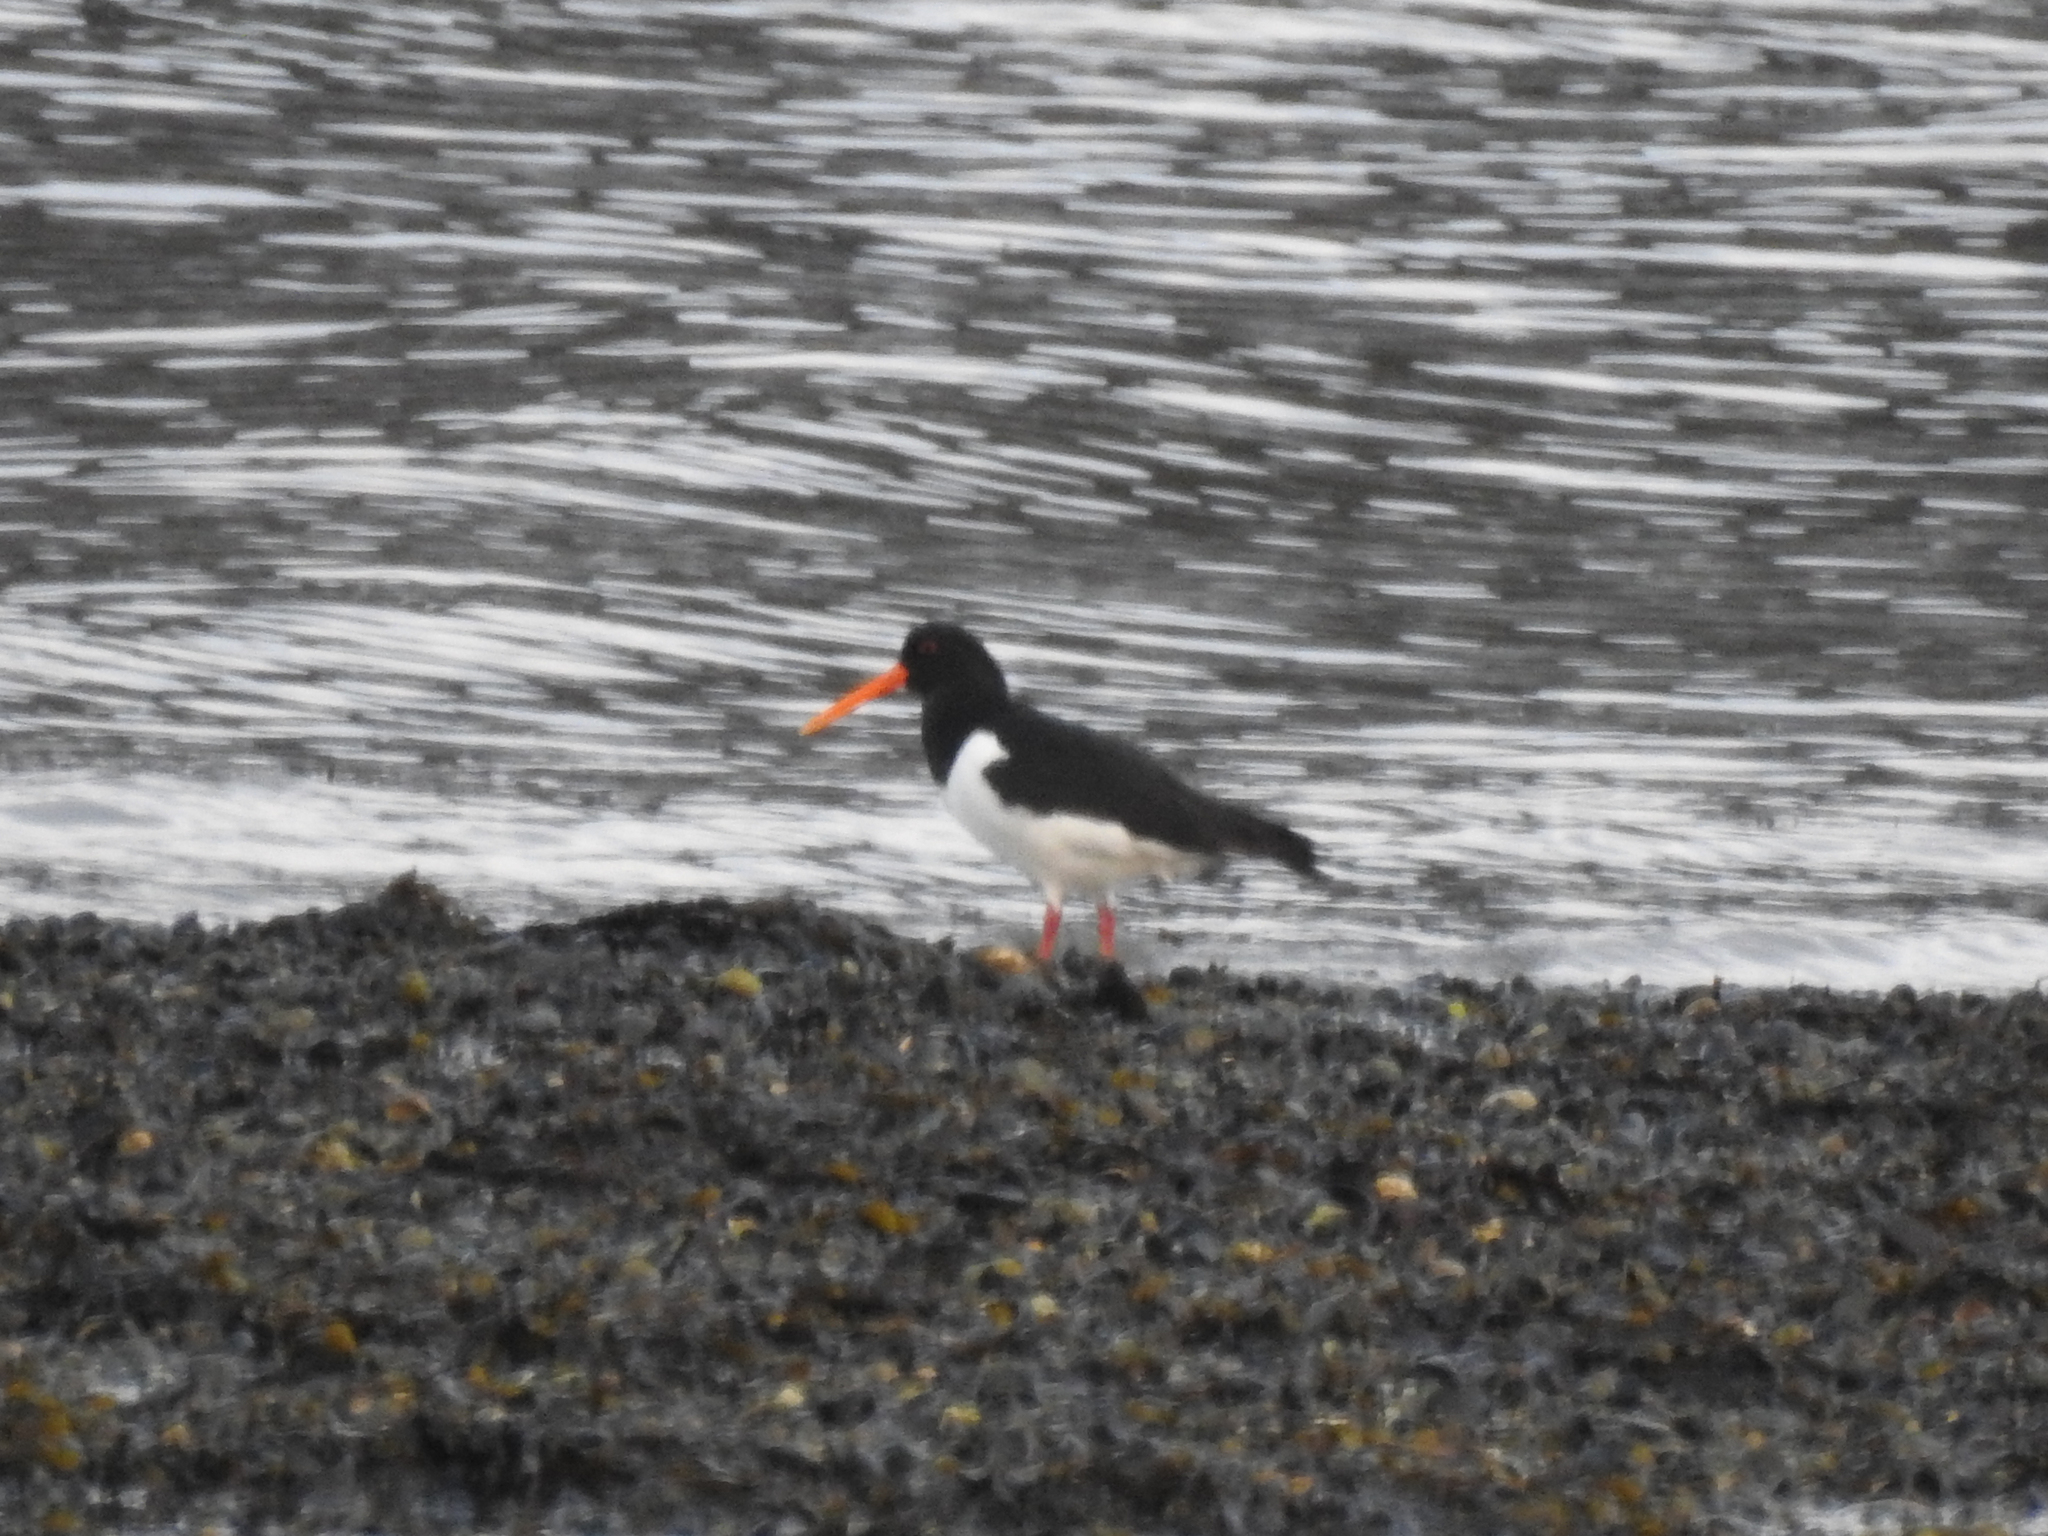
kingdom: Animalia
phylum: Chordata
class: Aves
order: Charadriiformes
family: Haematopodidae
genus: Haematopus
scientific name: Haematopus ostralegus
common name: Eurasian oystercatcher
